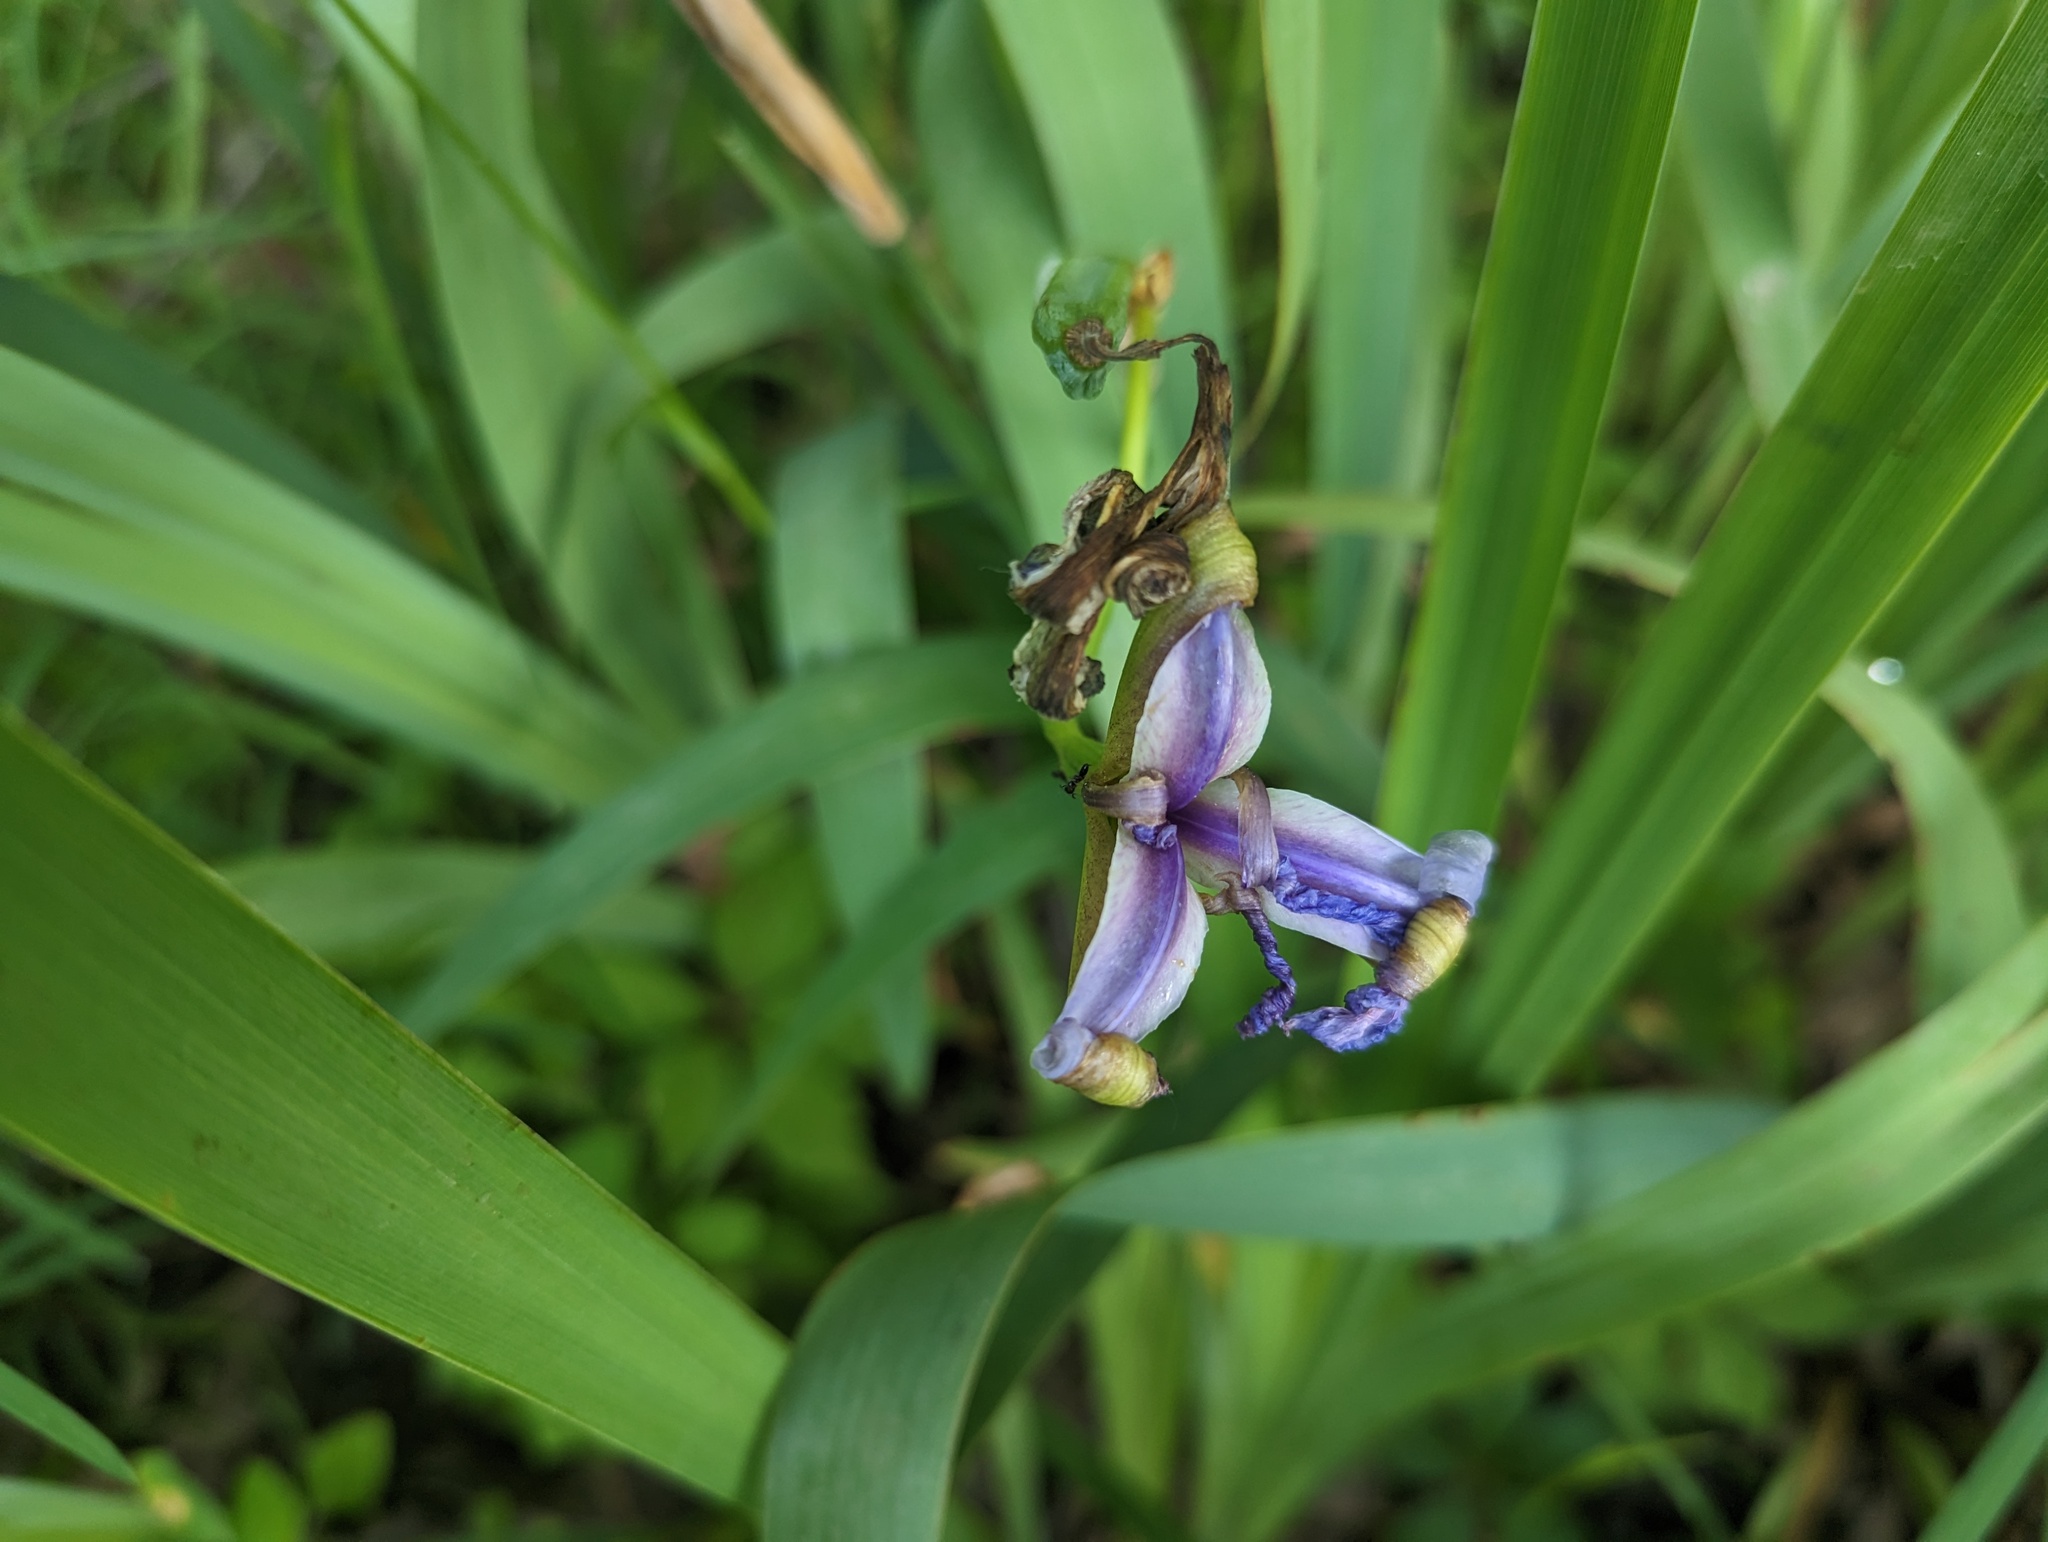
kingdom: Plantae
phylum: Tracheophyta
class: Liliopsida
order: Asparagales
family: Iridaceae
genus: Iris
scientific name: Iris virginica
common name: Southern blue flag
